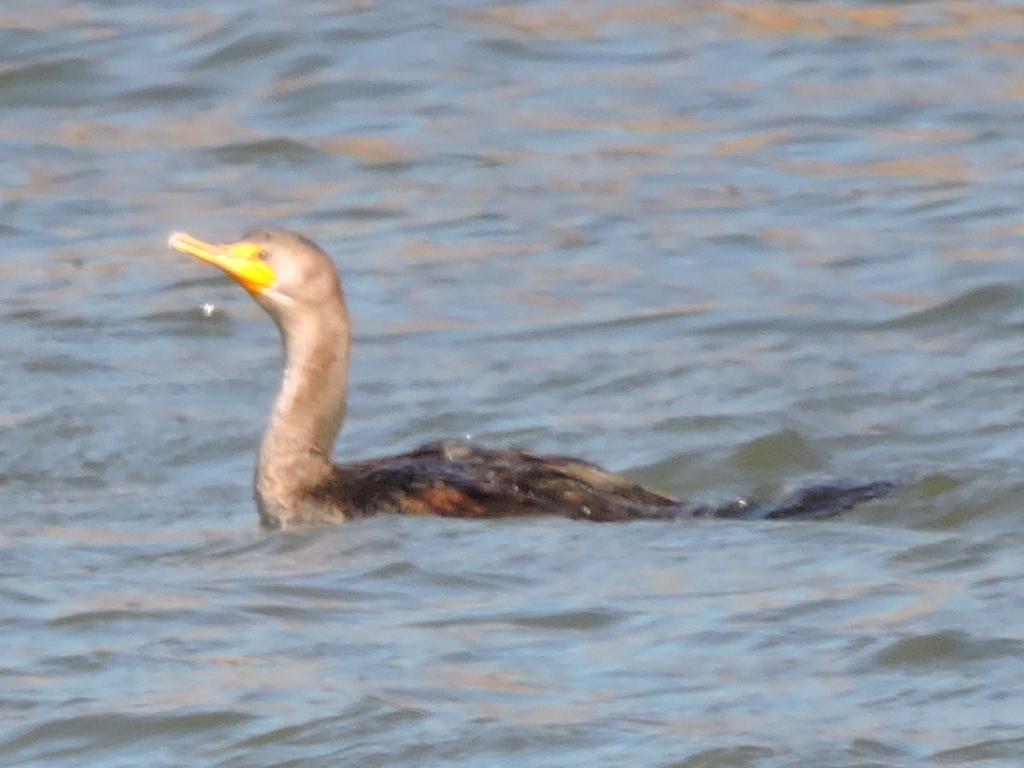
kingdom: Animalia
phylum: Chordata
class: Aves
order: Suliformes
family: Phalacrocoracidae
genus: Phalacrocorax
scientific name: Phalacrocorax auritus
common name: Double-crested cormorant
